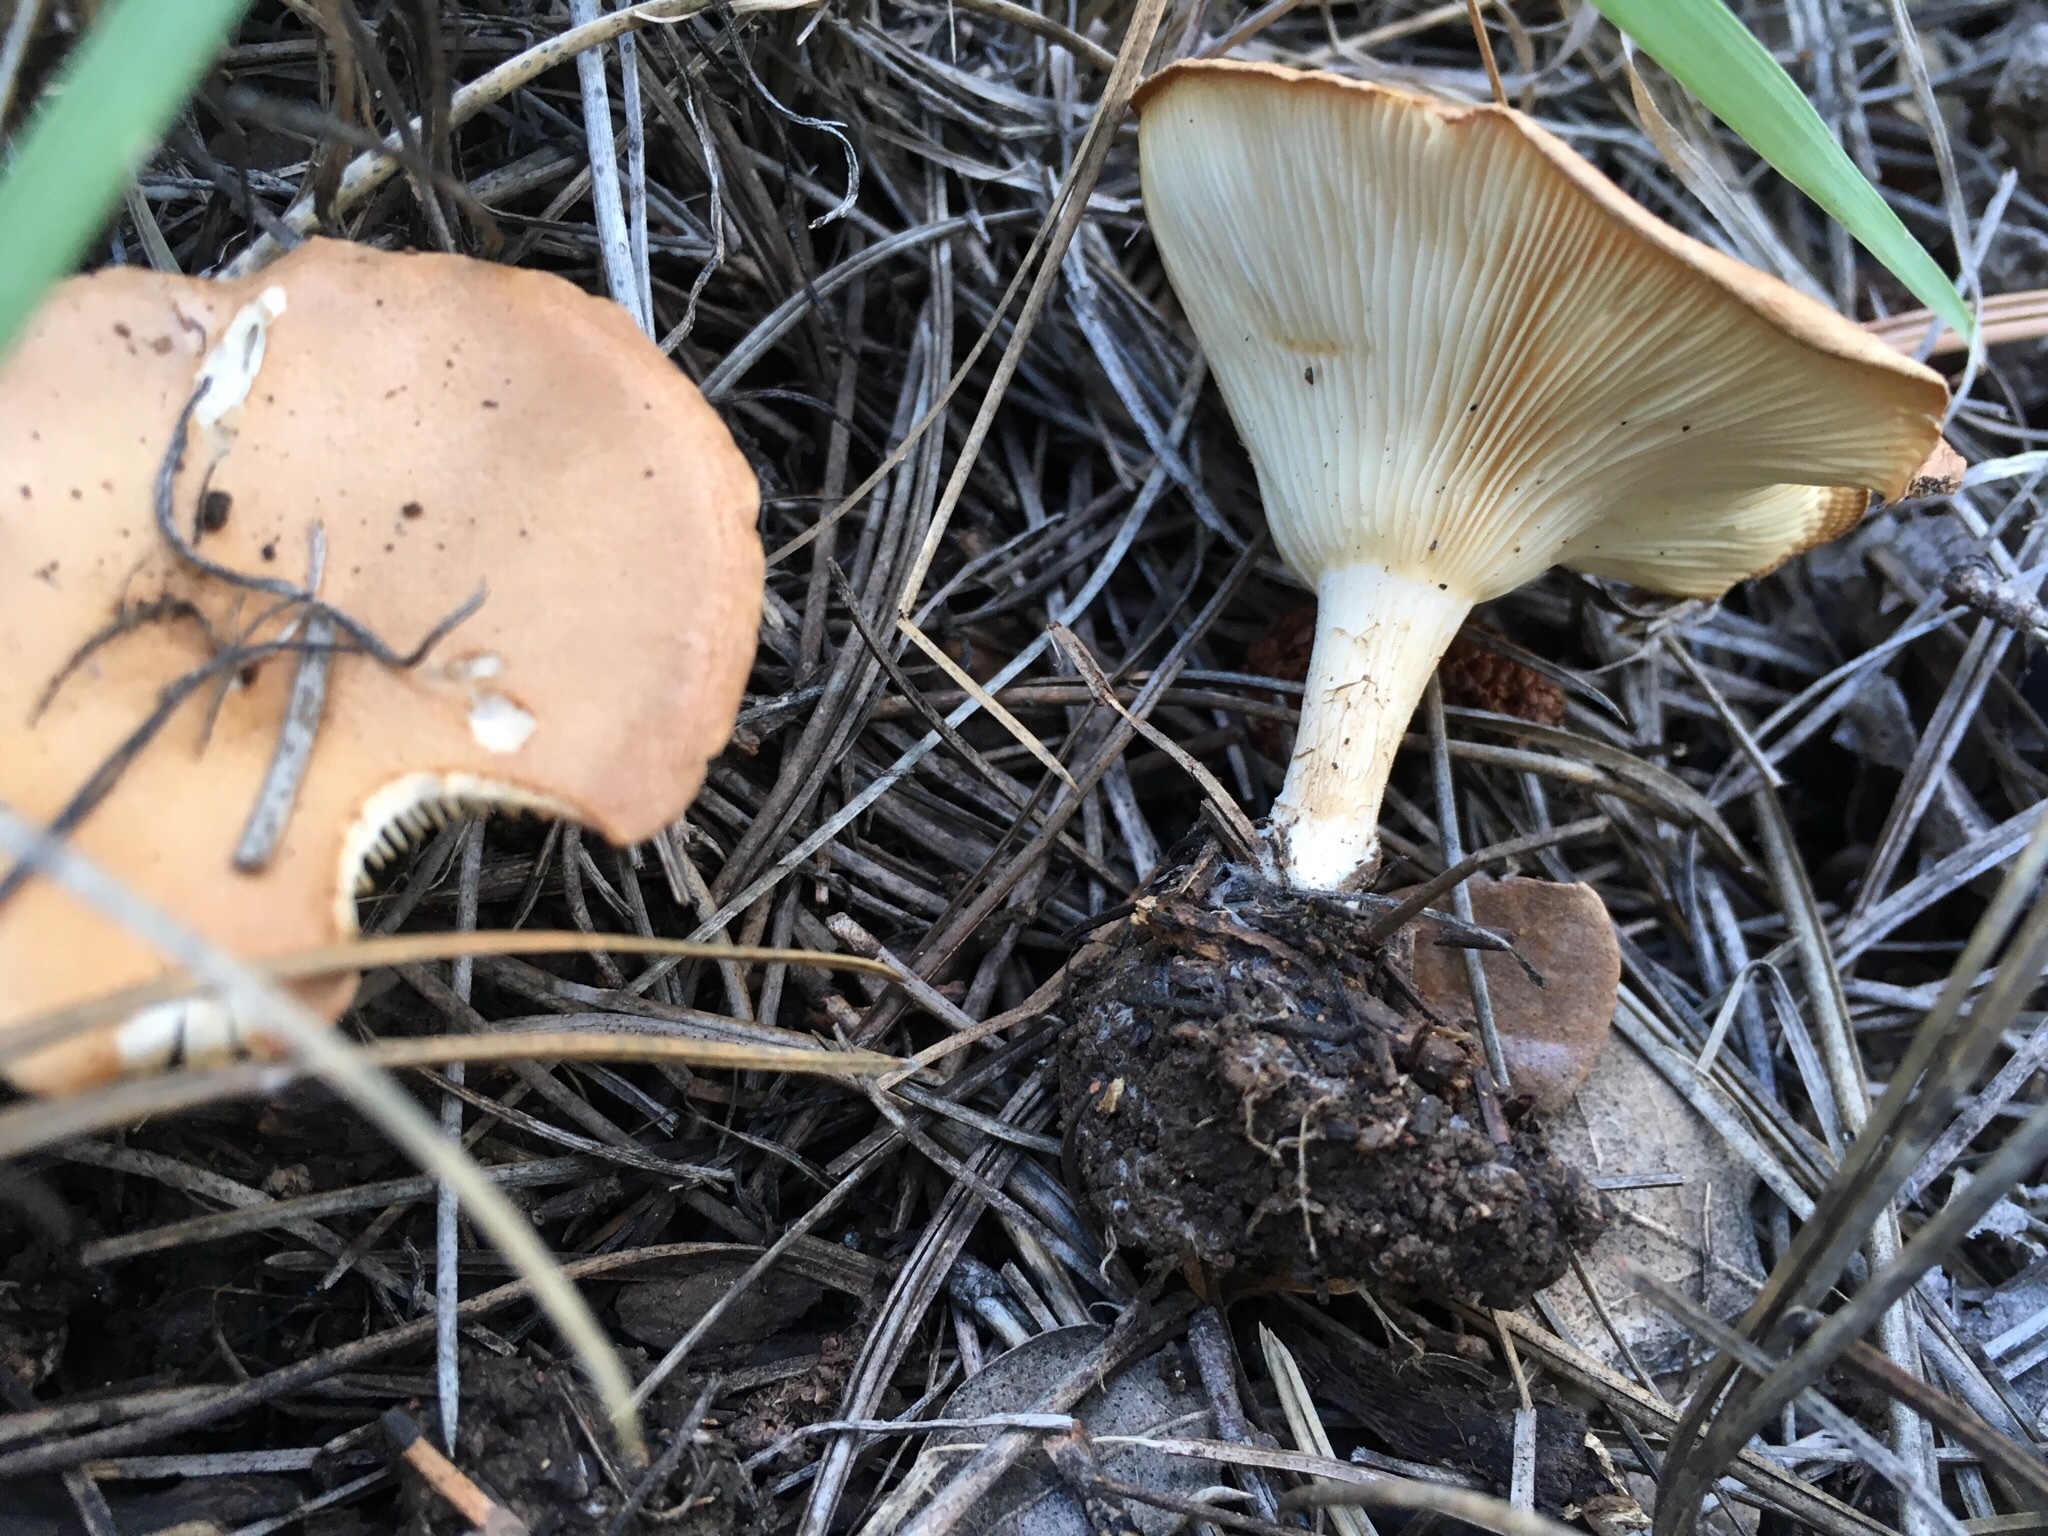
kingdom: Fungi
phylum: Basidiomycota
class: Agaricomycetes
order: Agaricales
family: Tricholomataceae
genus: Infundibulicybe
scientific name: Infundibulicybe gibba
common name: Common funnel
